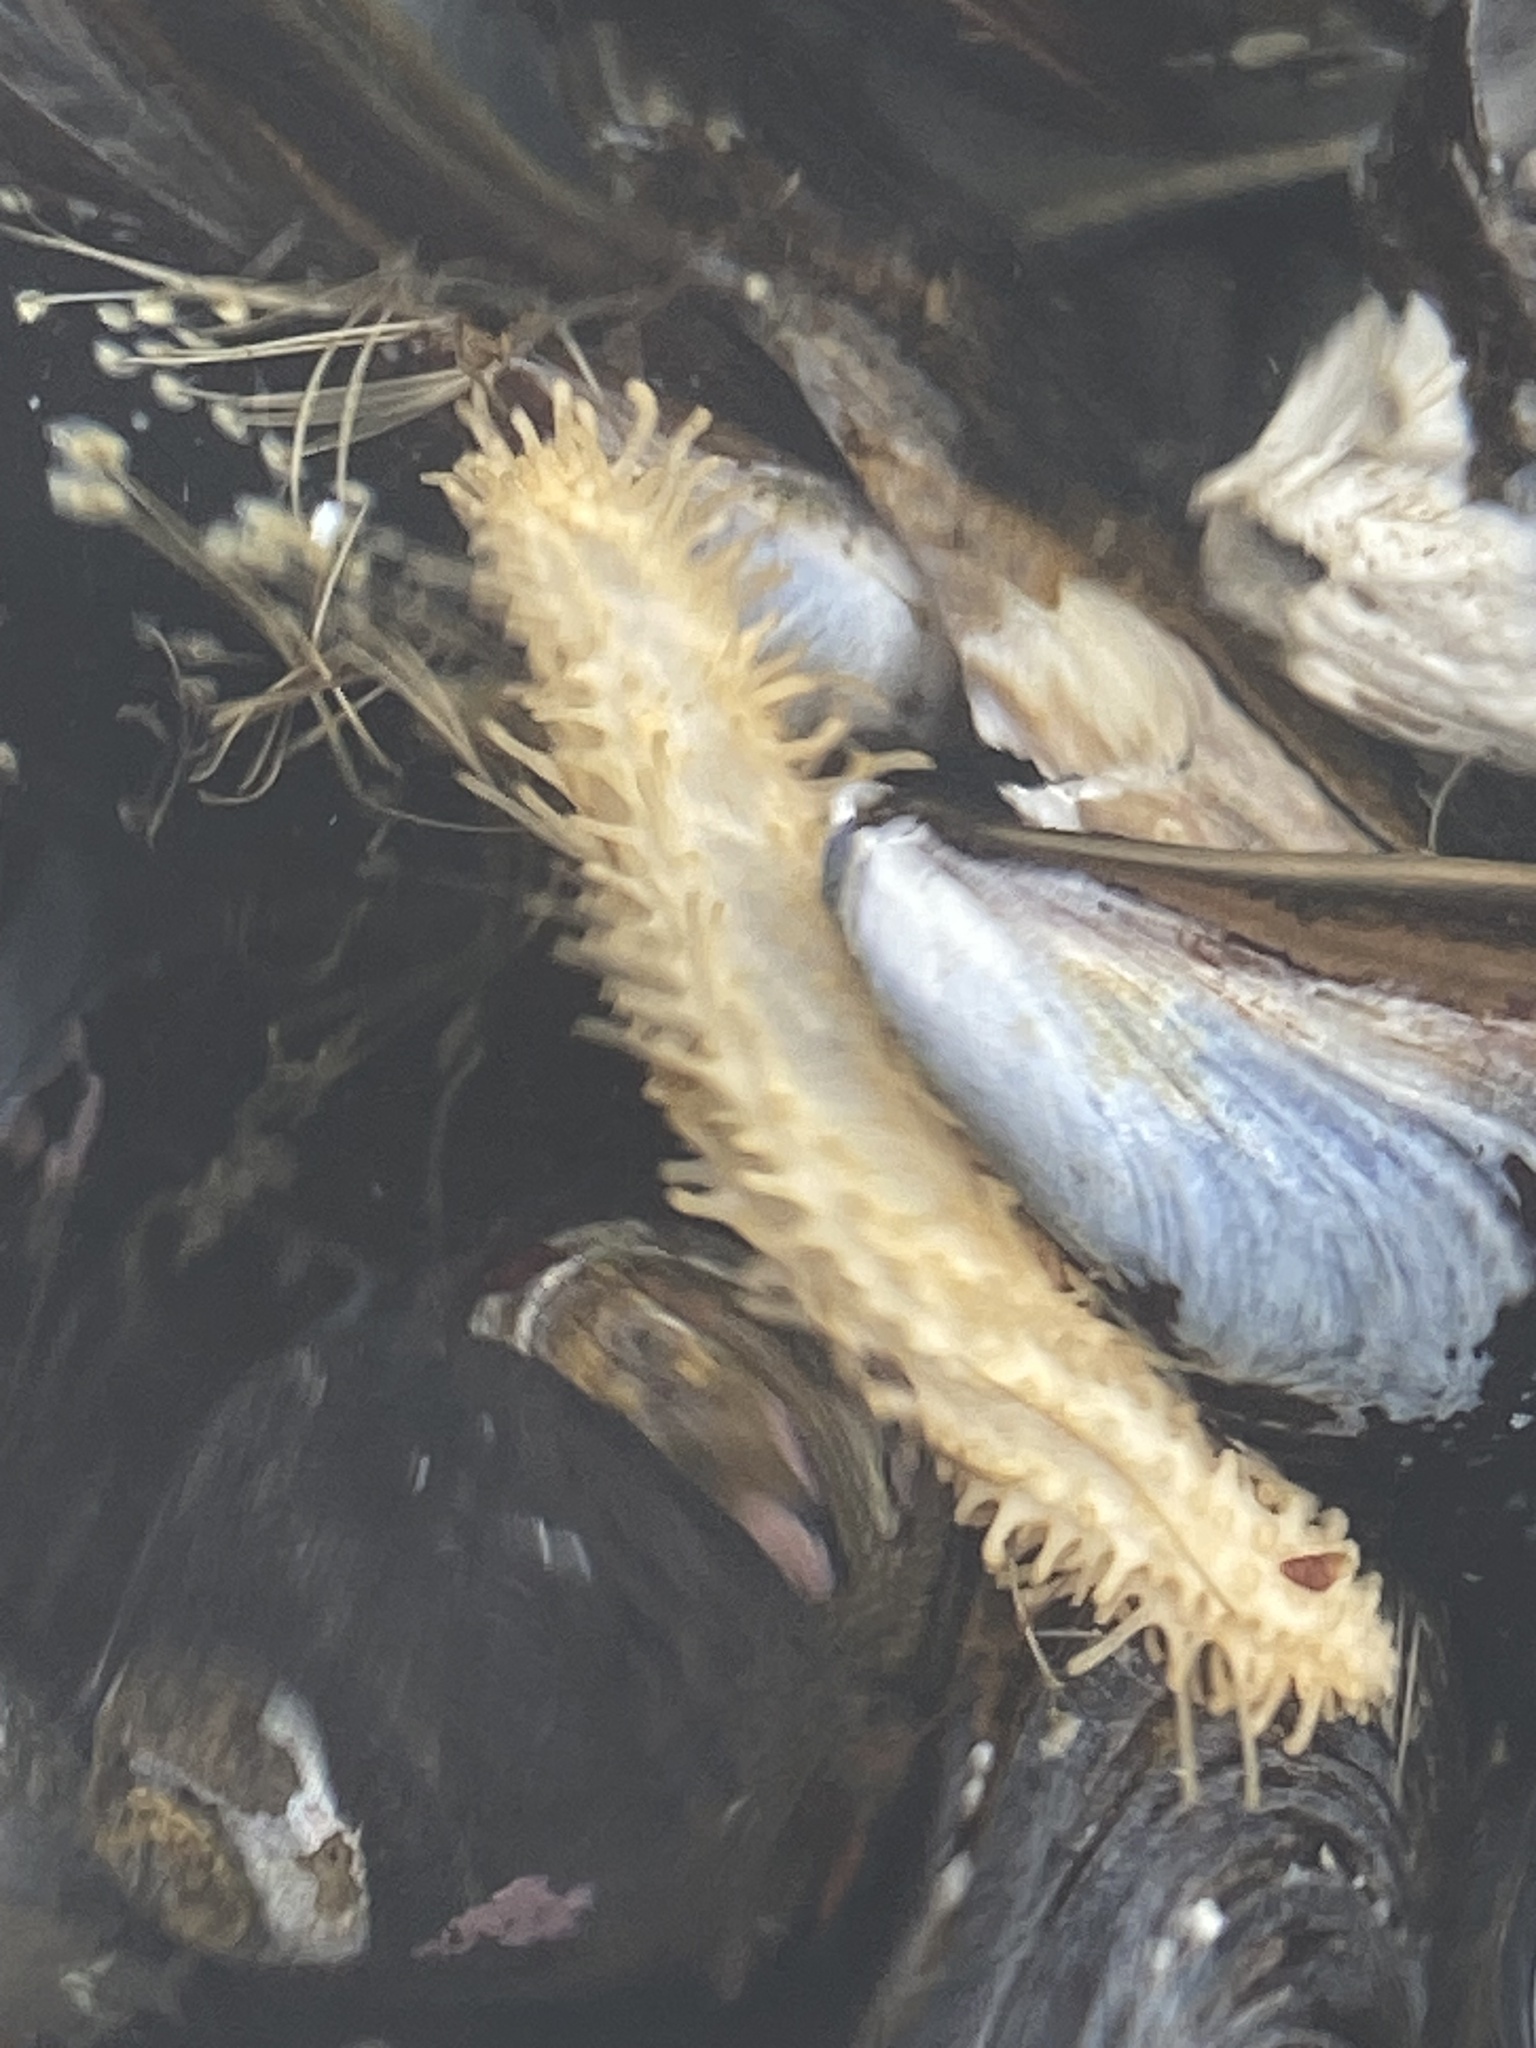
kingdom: Animalia
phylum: Echinodermata
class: Holothuroidea
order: Dendrochirotida
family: Sclerodactylidae
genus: Eupentacta
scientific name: Eupentacta quinquesemita
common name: Pentamerous sea cucumber
